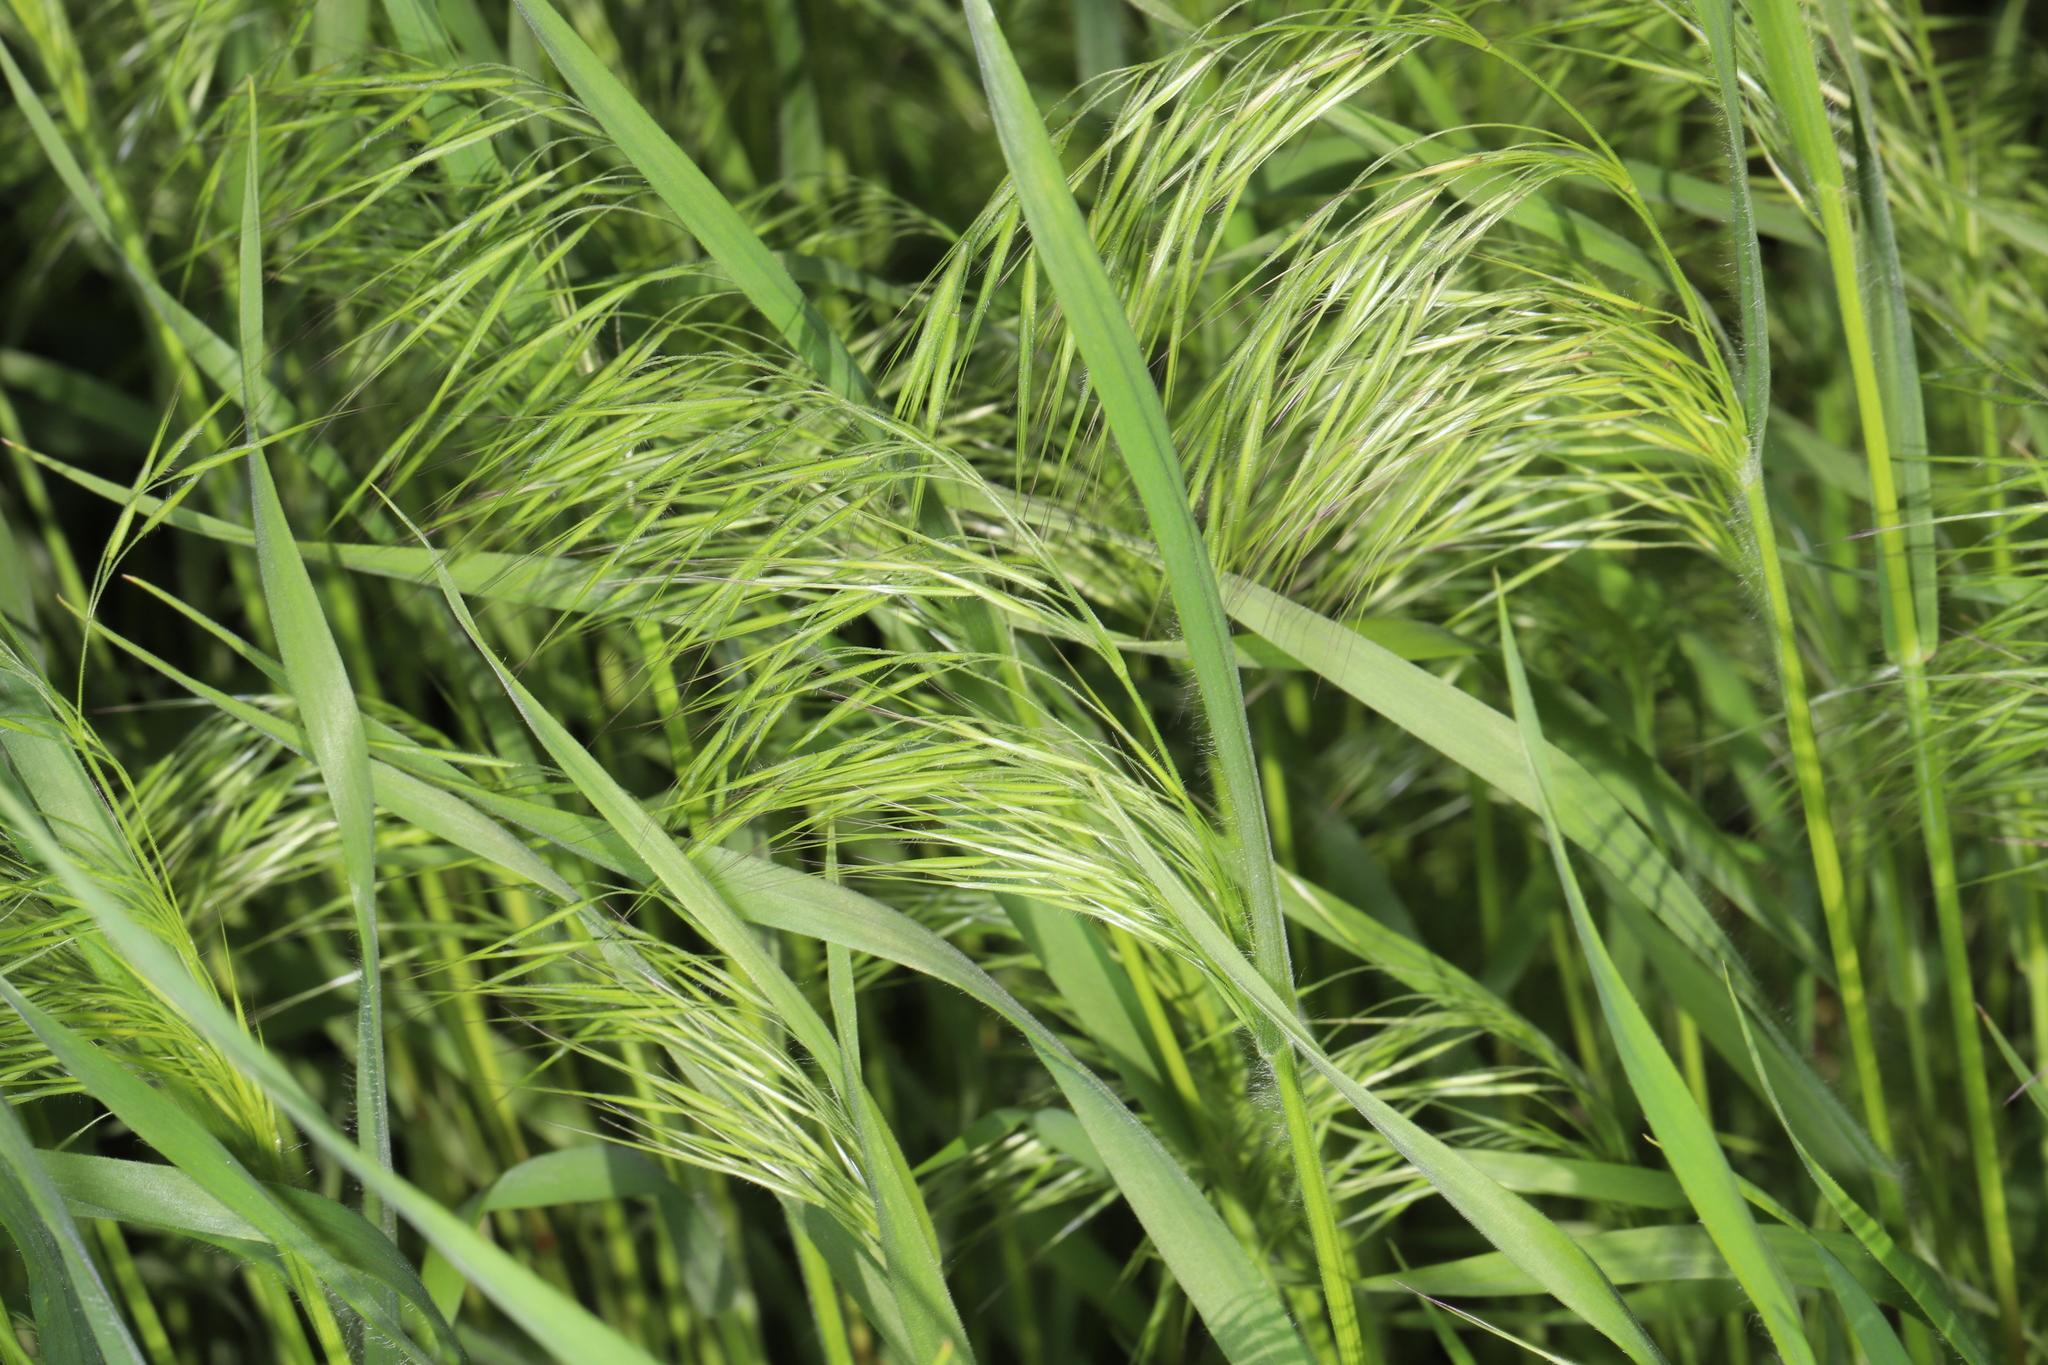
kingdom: Plantae
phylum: Tracheophyta
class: Liliopsida
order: Poales
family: Poaceae
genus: Bromus
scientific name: Bromus tectorum
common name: Cheatgrass
